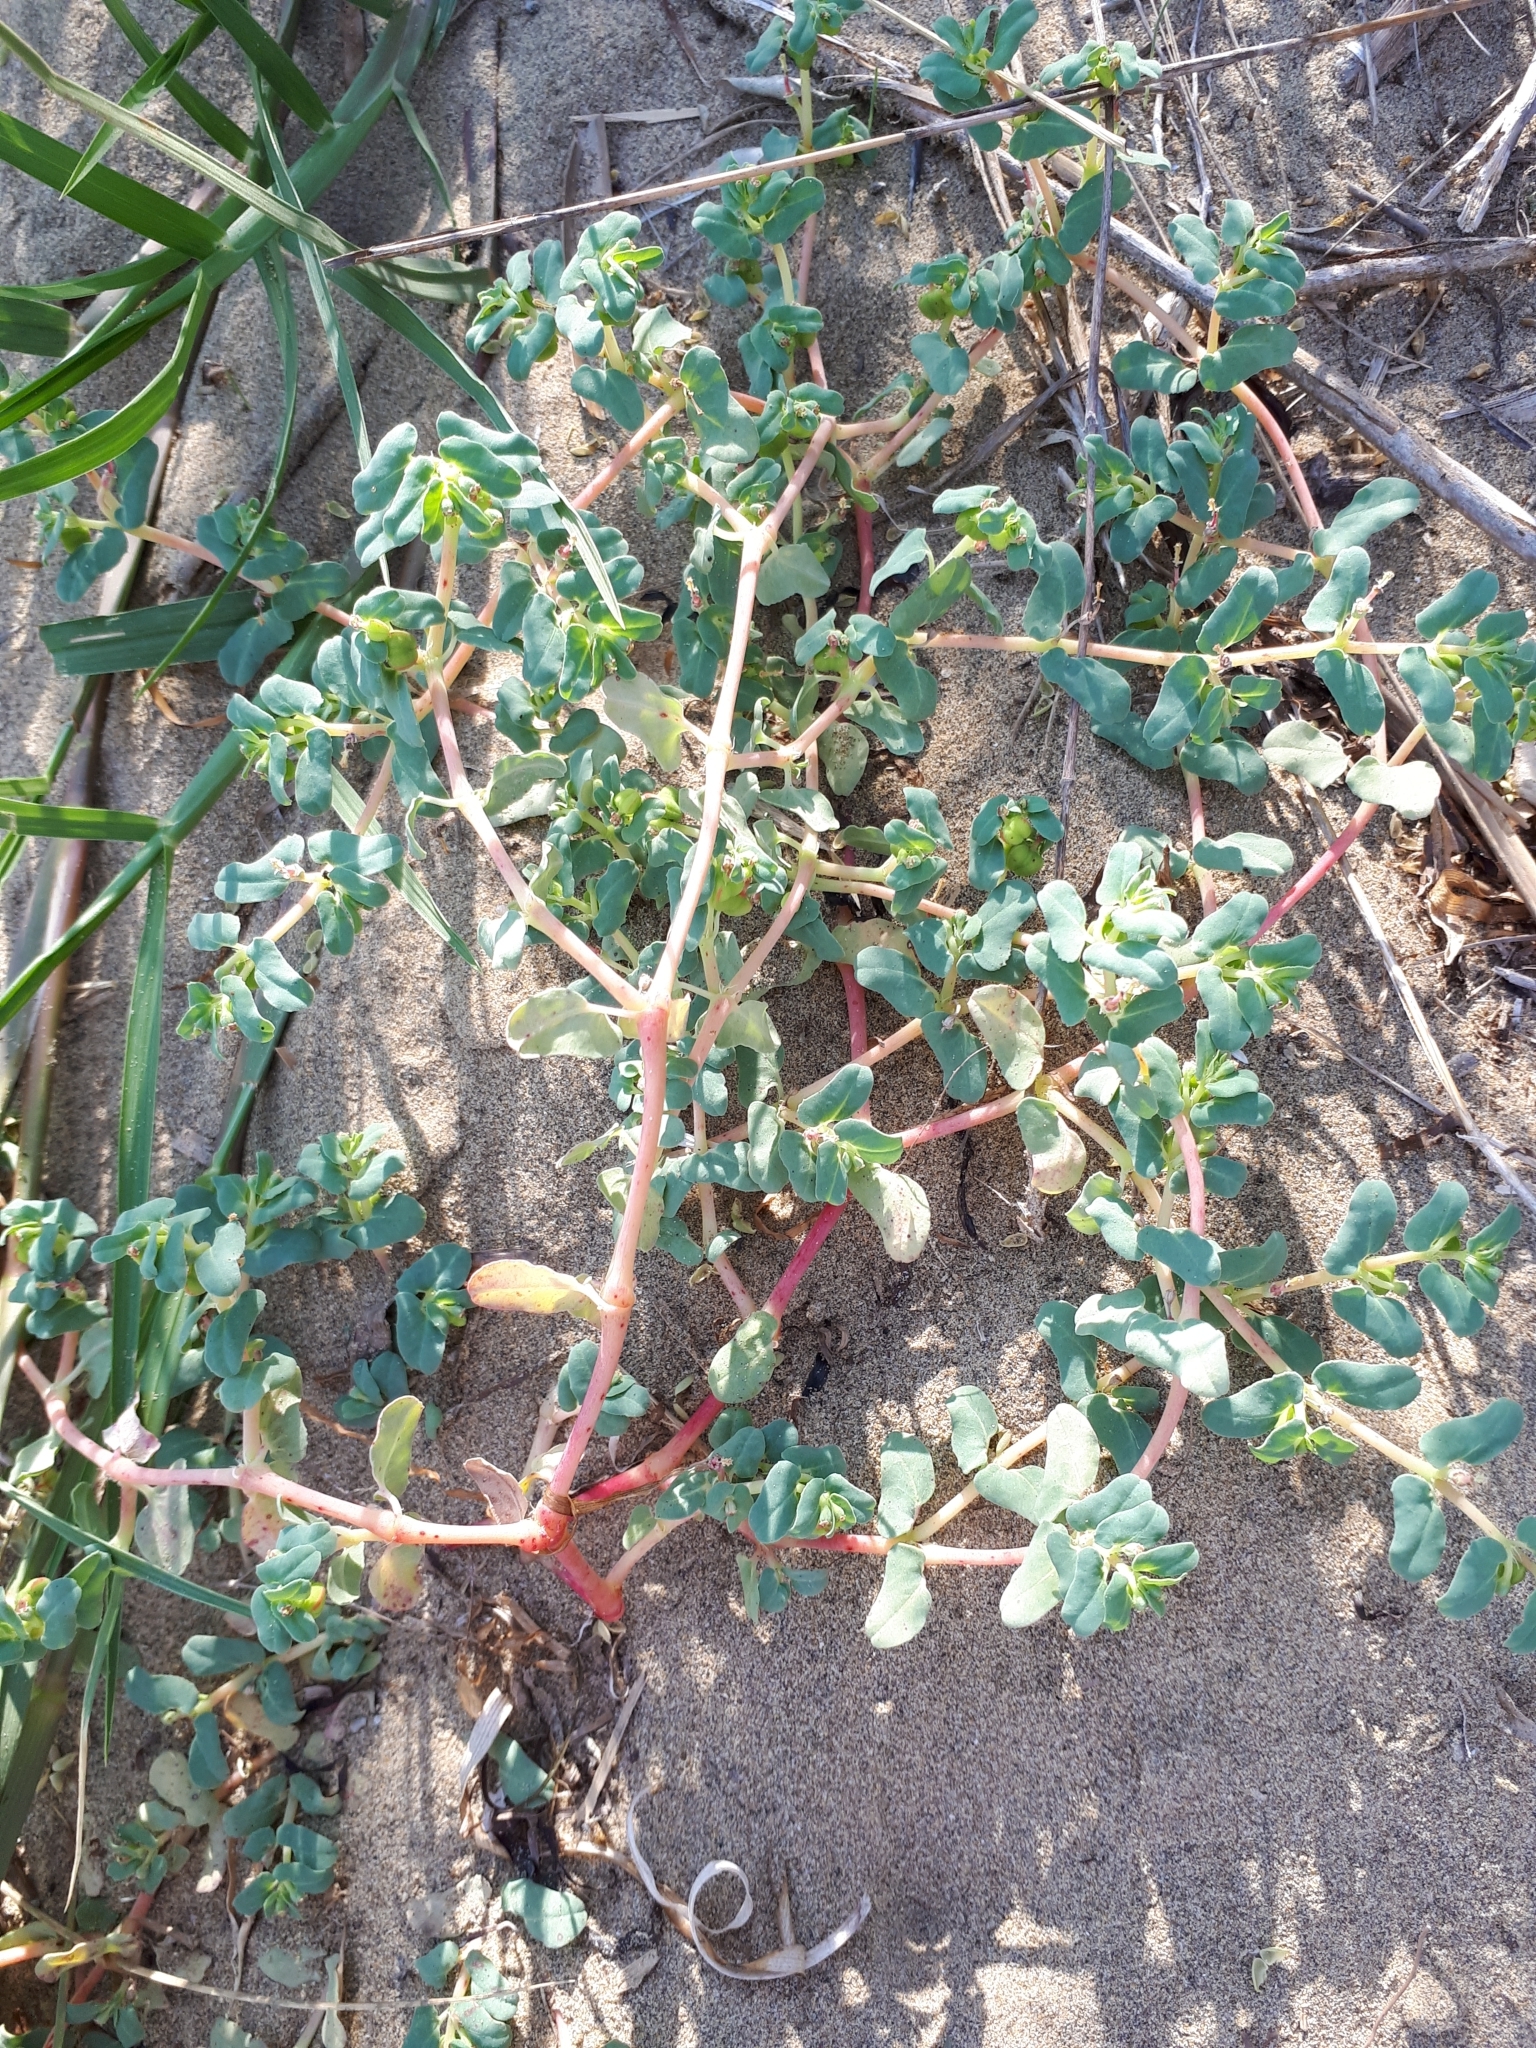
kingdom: Plantae
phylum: Tracheophyta
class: Magnoliopsida
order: Malpighiales
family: Euphorbiaceae
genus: Euphorbia
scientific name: Euphorbia peplis
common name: Purple spurge
